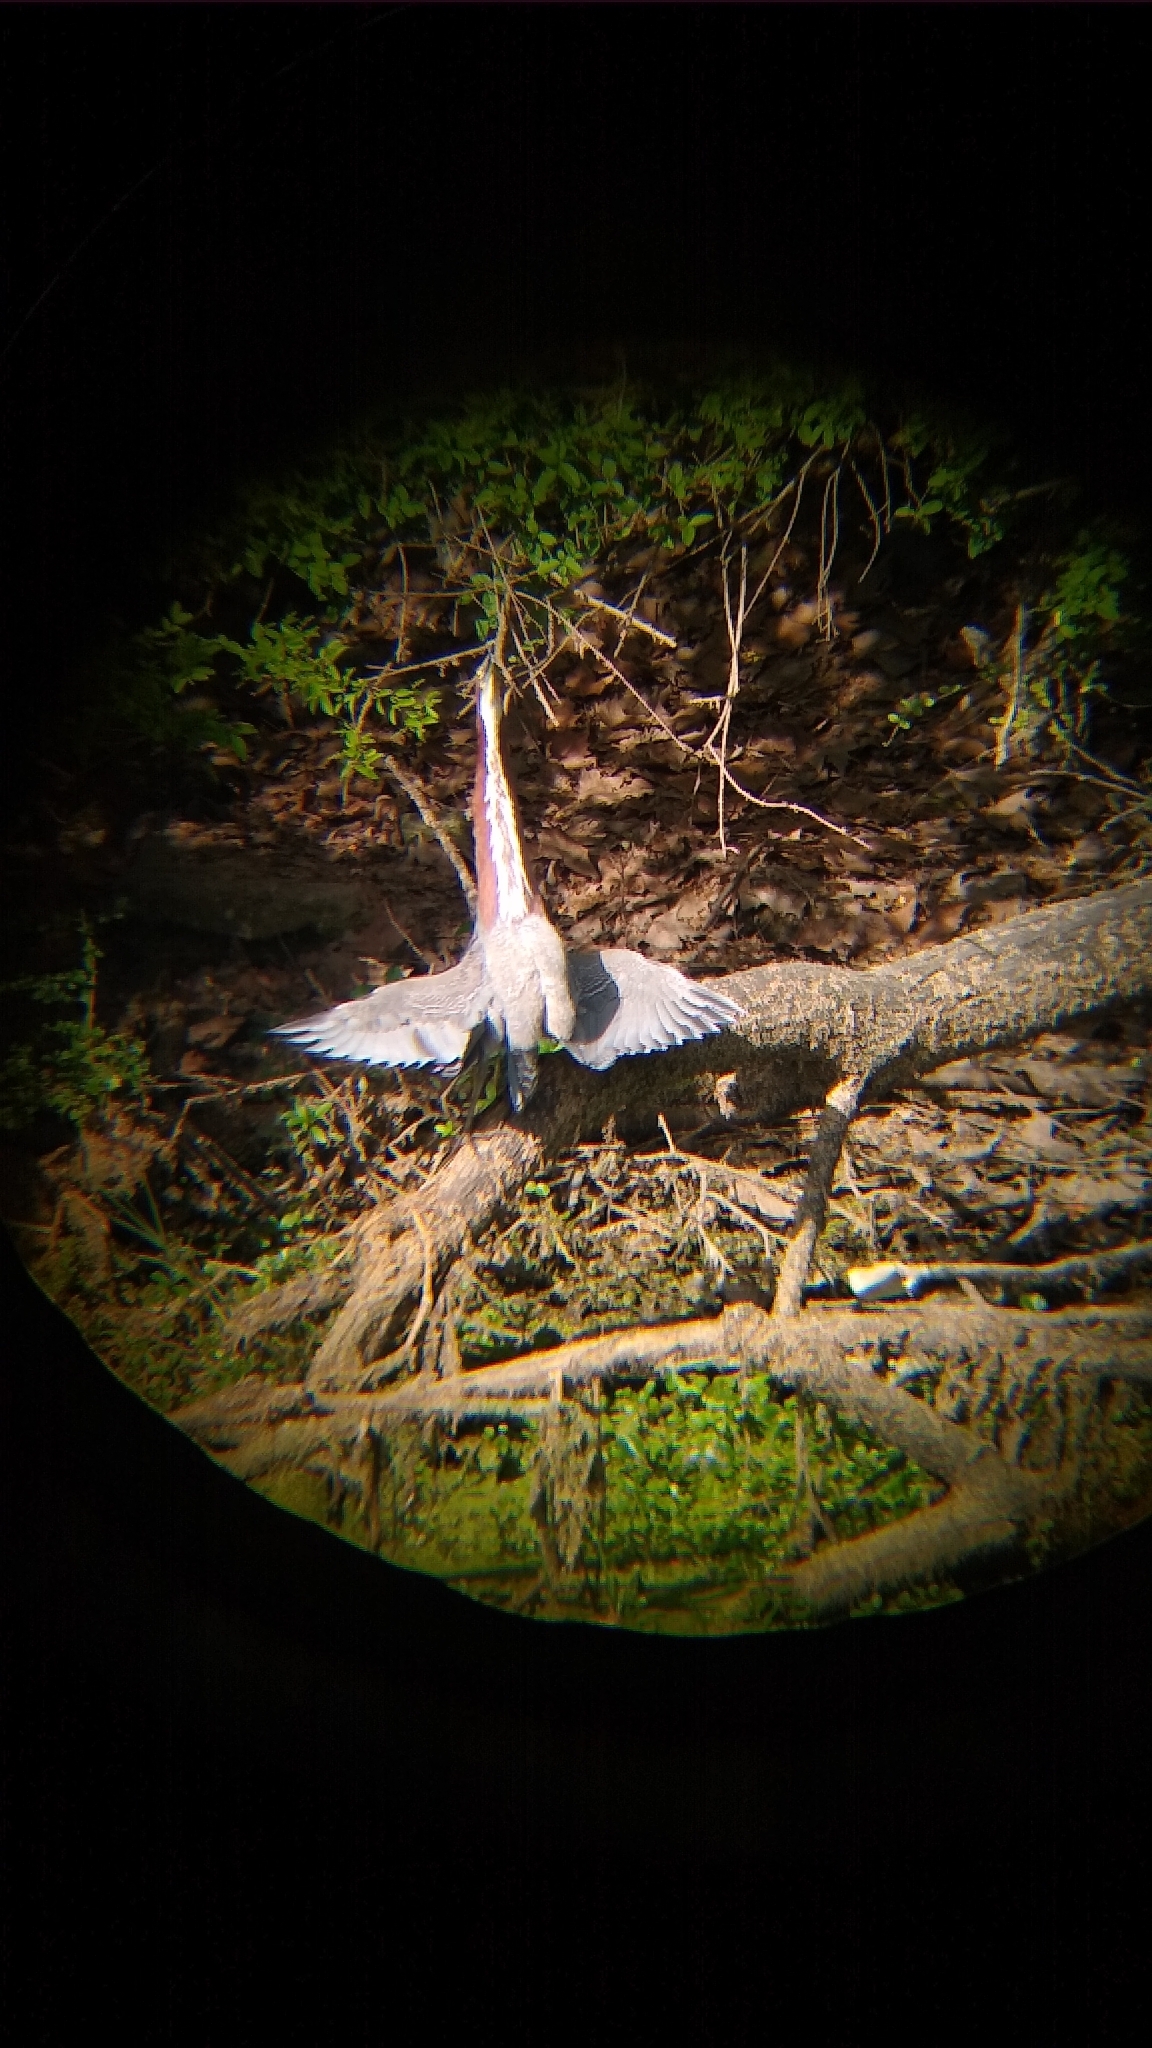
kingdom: Animalia
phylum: Chordata
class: Aves
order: Pelecaniformes
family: Ardeidae
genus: Tigrisoma
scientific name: Tigrisoma lineatum
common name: Rufescent tiger-heron
